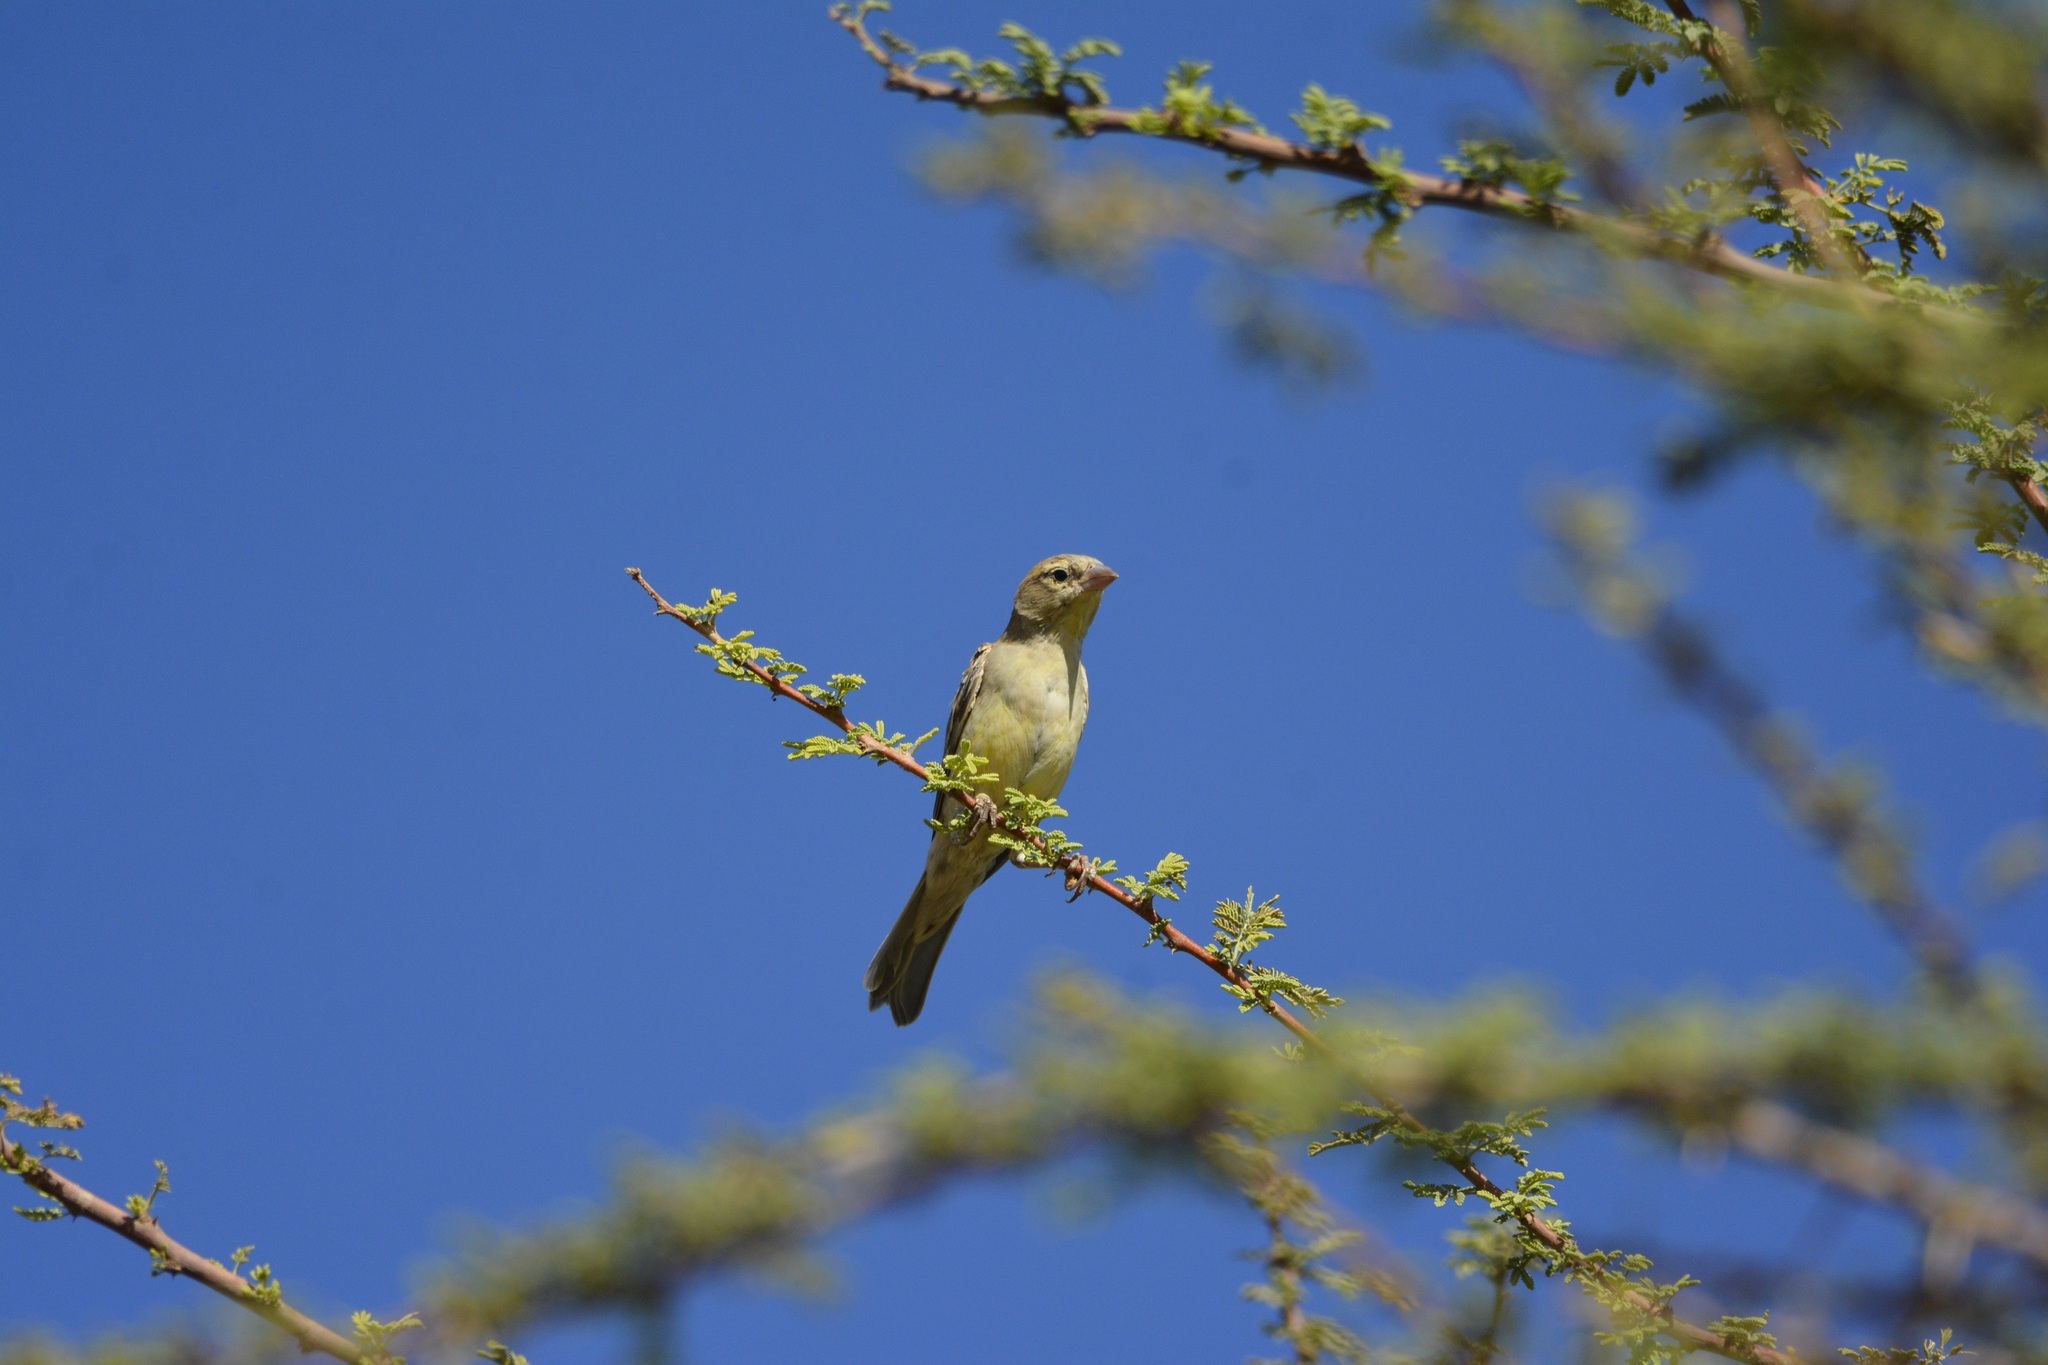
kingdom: Animalia
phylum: Chordata
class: Aves
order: Passeriformes
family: Passeridae
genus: Passer
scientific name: Passer luteus
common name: Sudan golden sparrow
